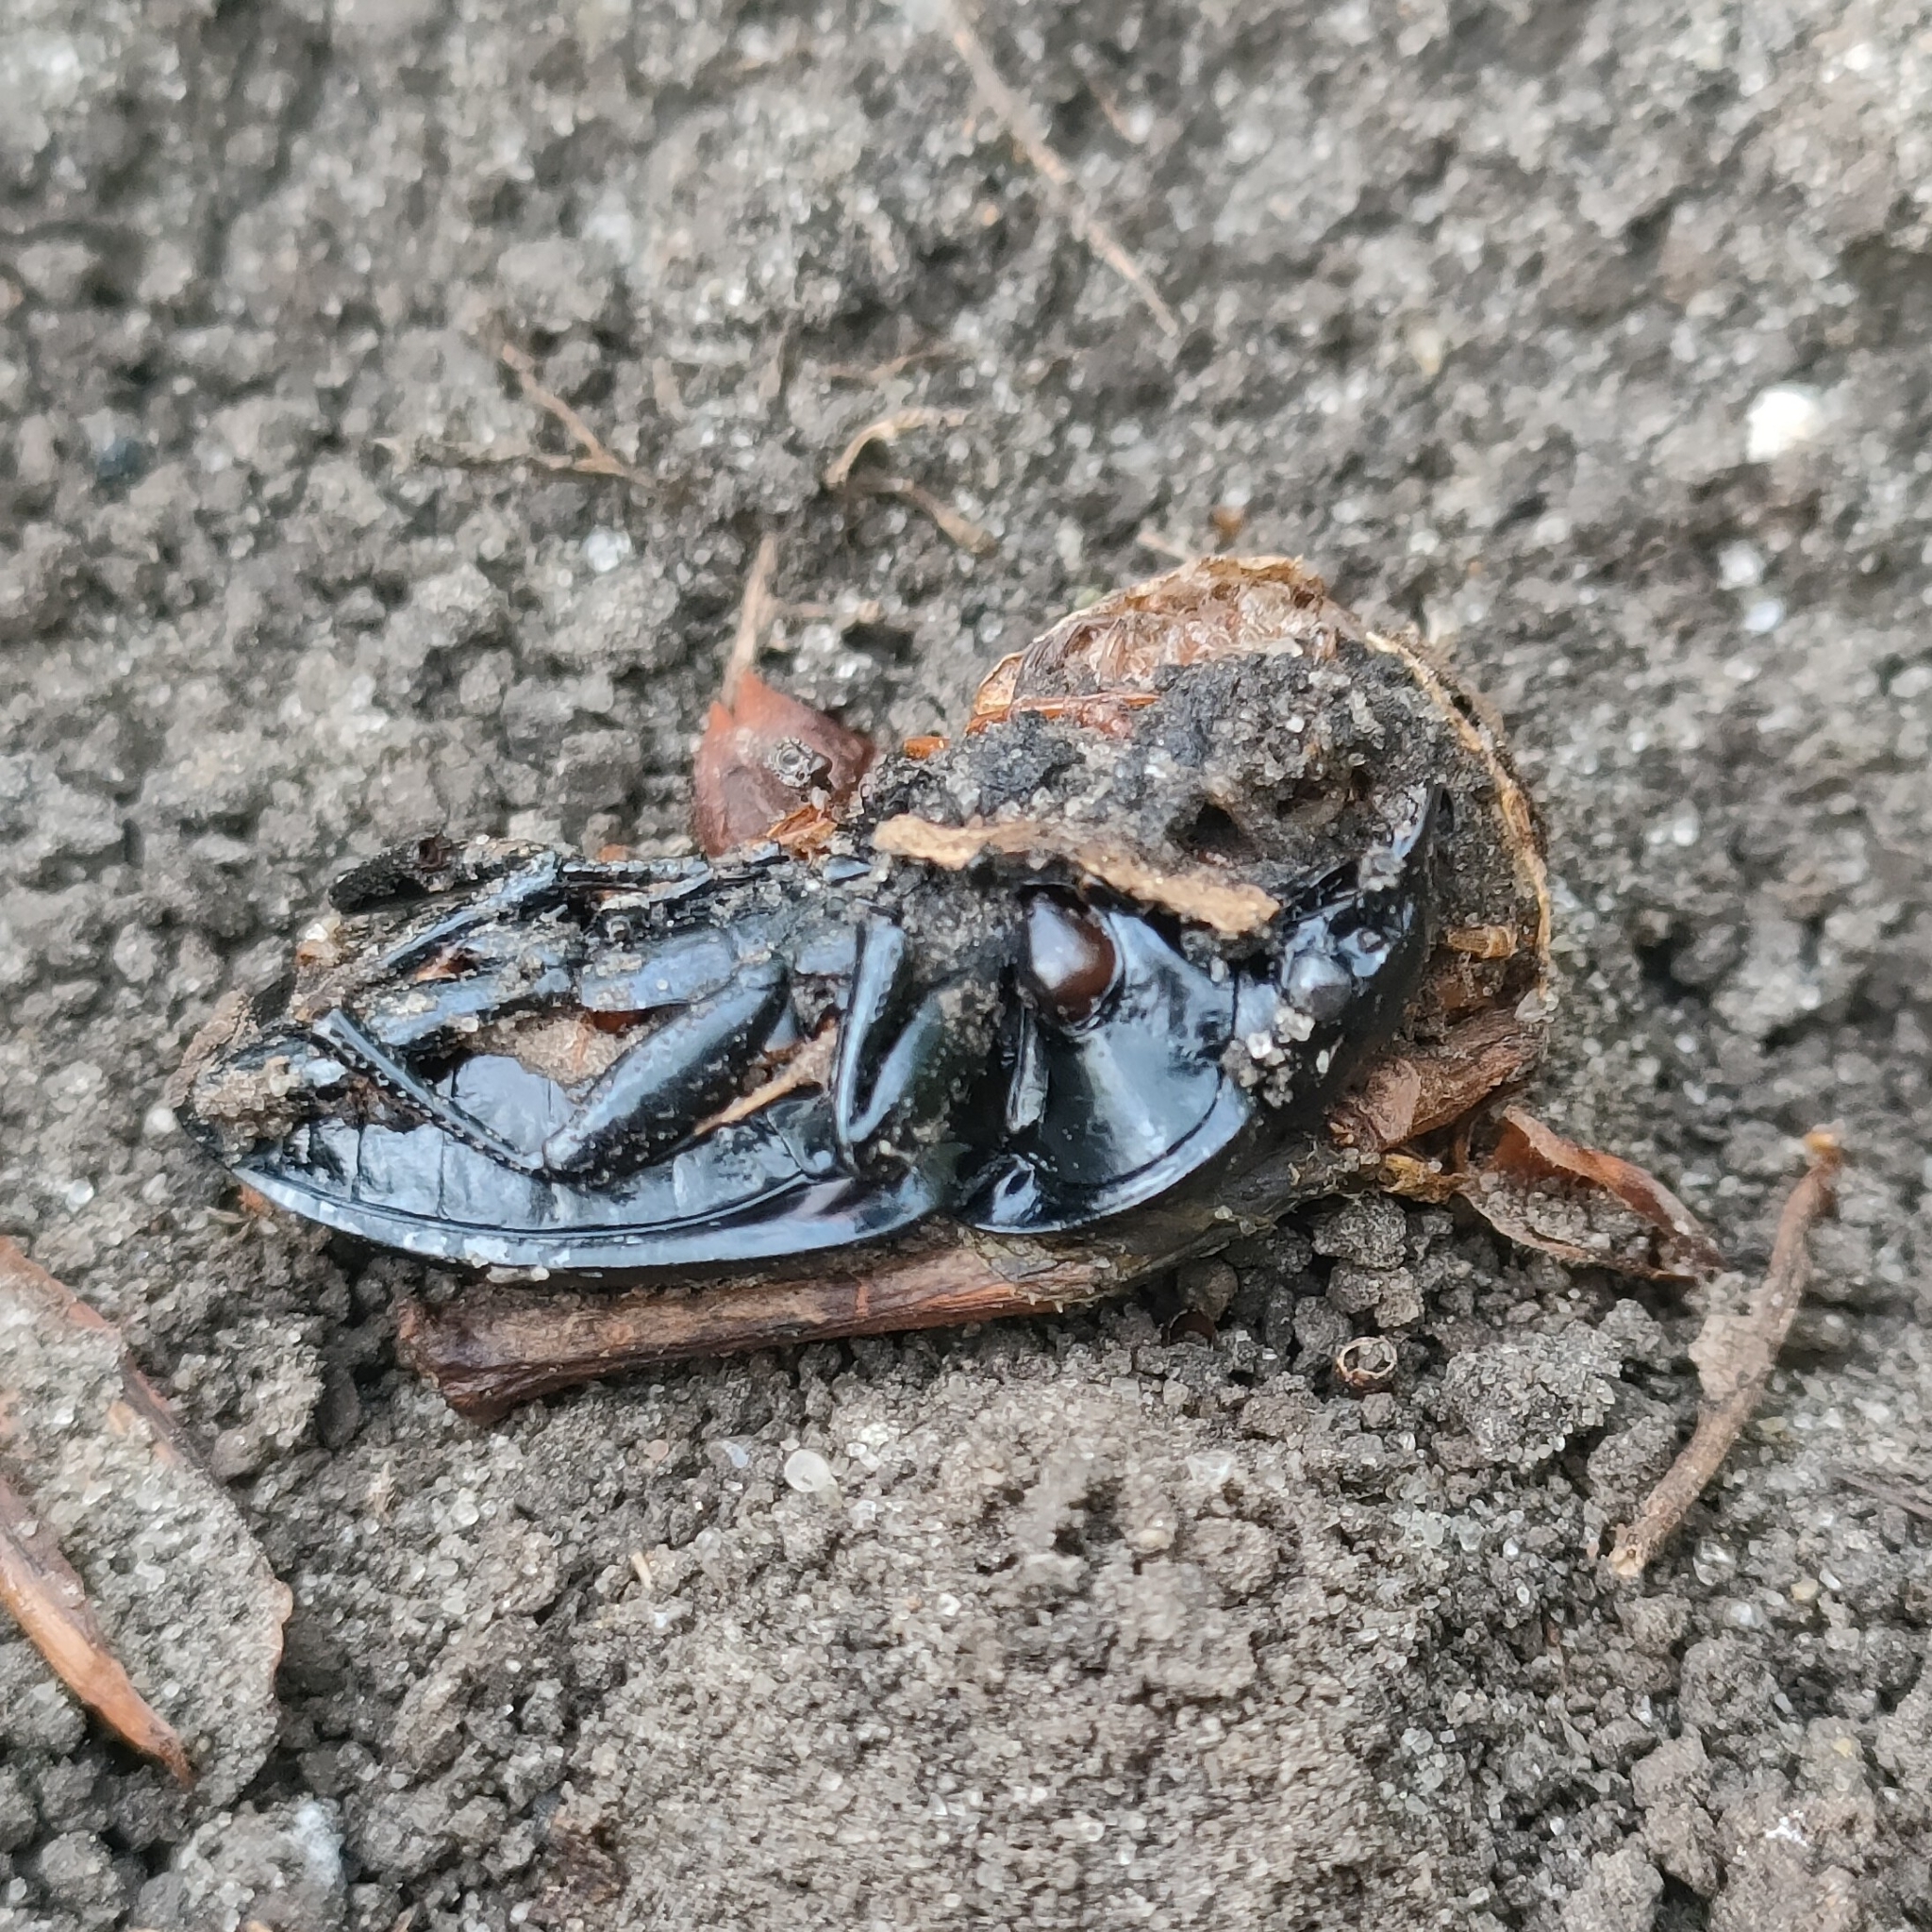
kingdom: Animalia
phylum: Arthropoda
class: Insecta
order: Coleoptera
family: Carabidae
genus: Carabus
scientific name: Carabus nemoralis
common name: European ground beetle
